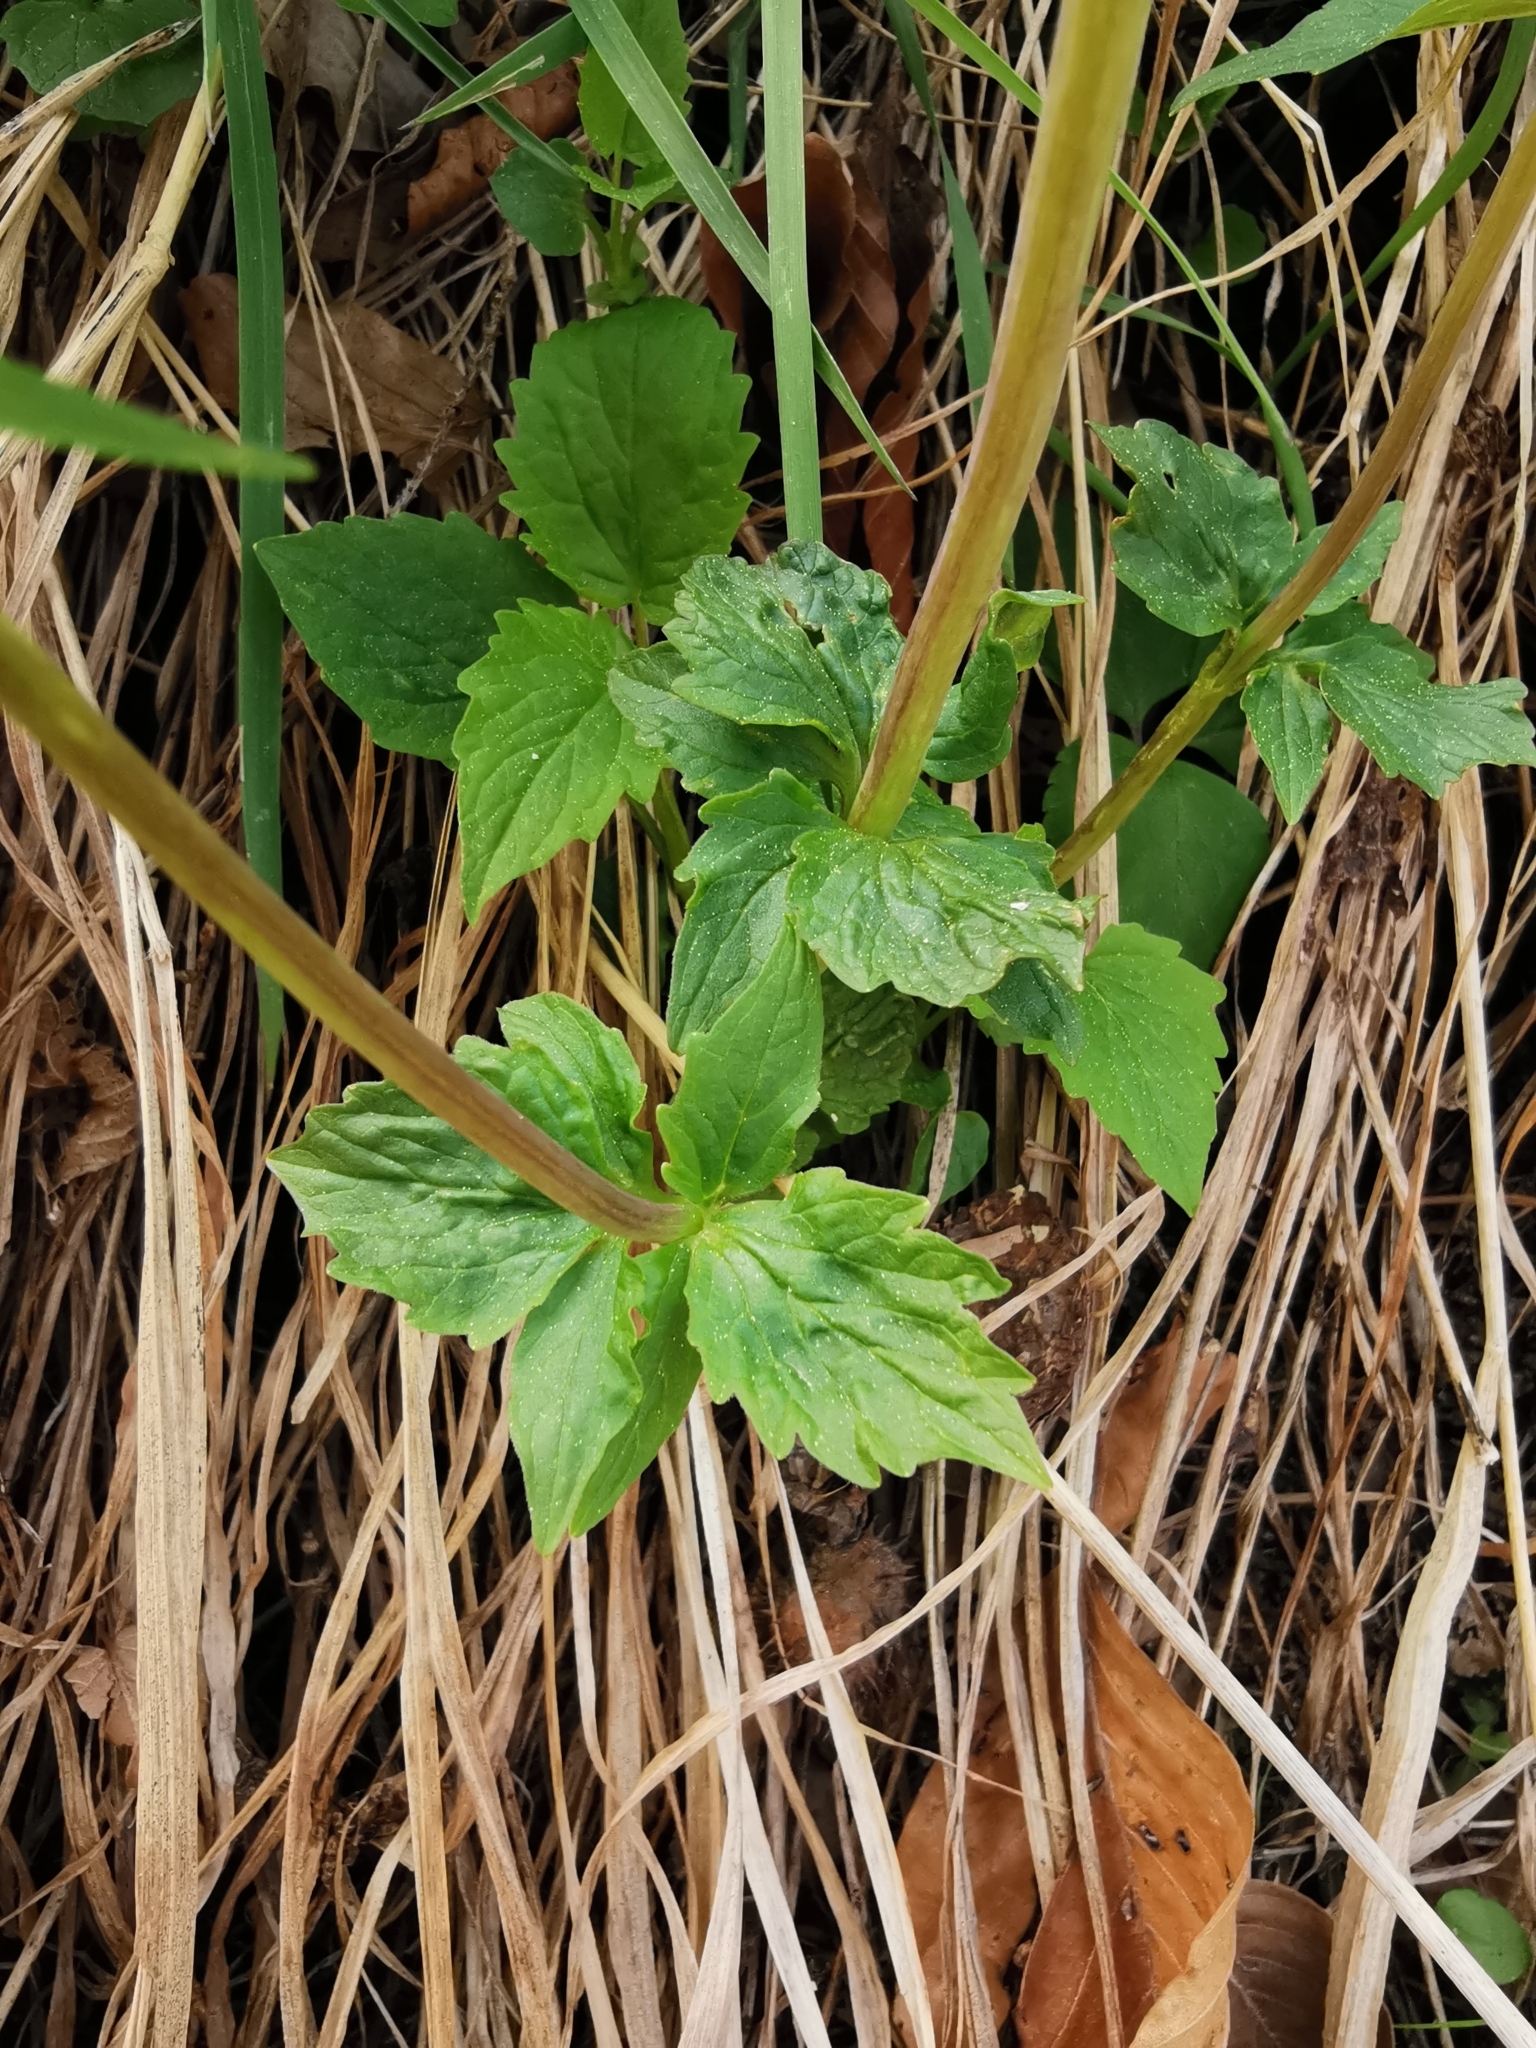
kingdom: Plantae
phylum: Tracheophyta
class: Magnoliopsida
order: Dipsacales
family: Caprifoliaceae
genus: Valeriana
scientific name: Valeriana tripteris
